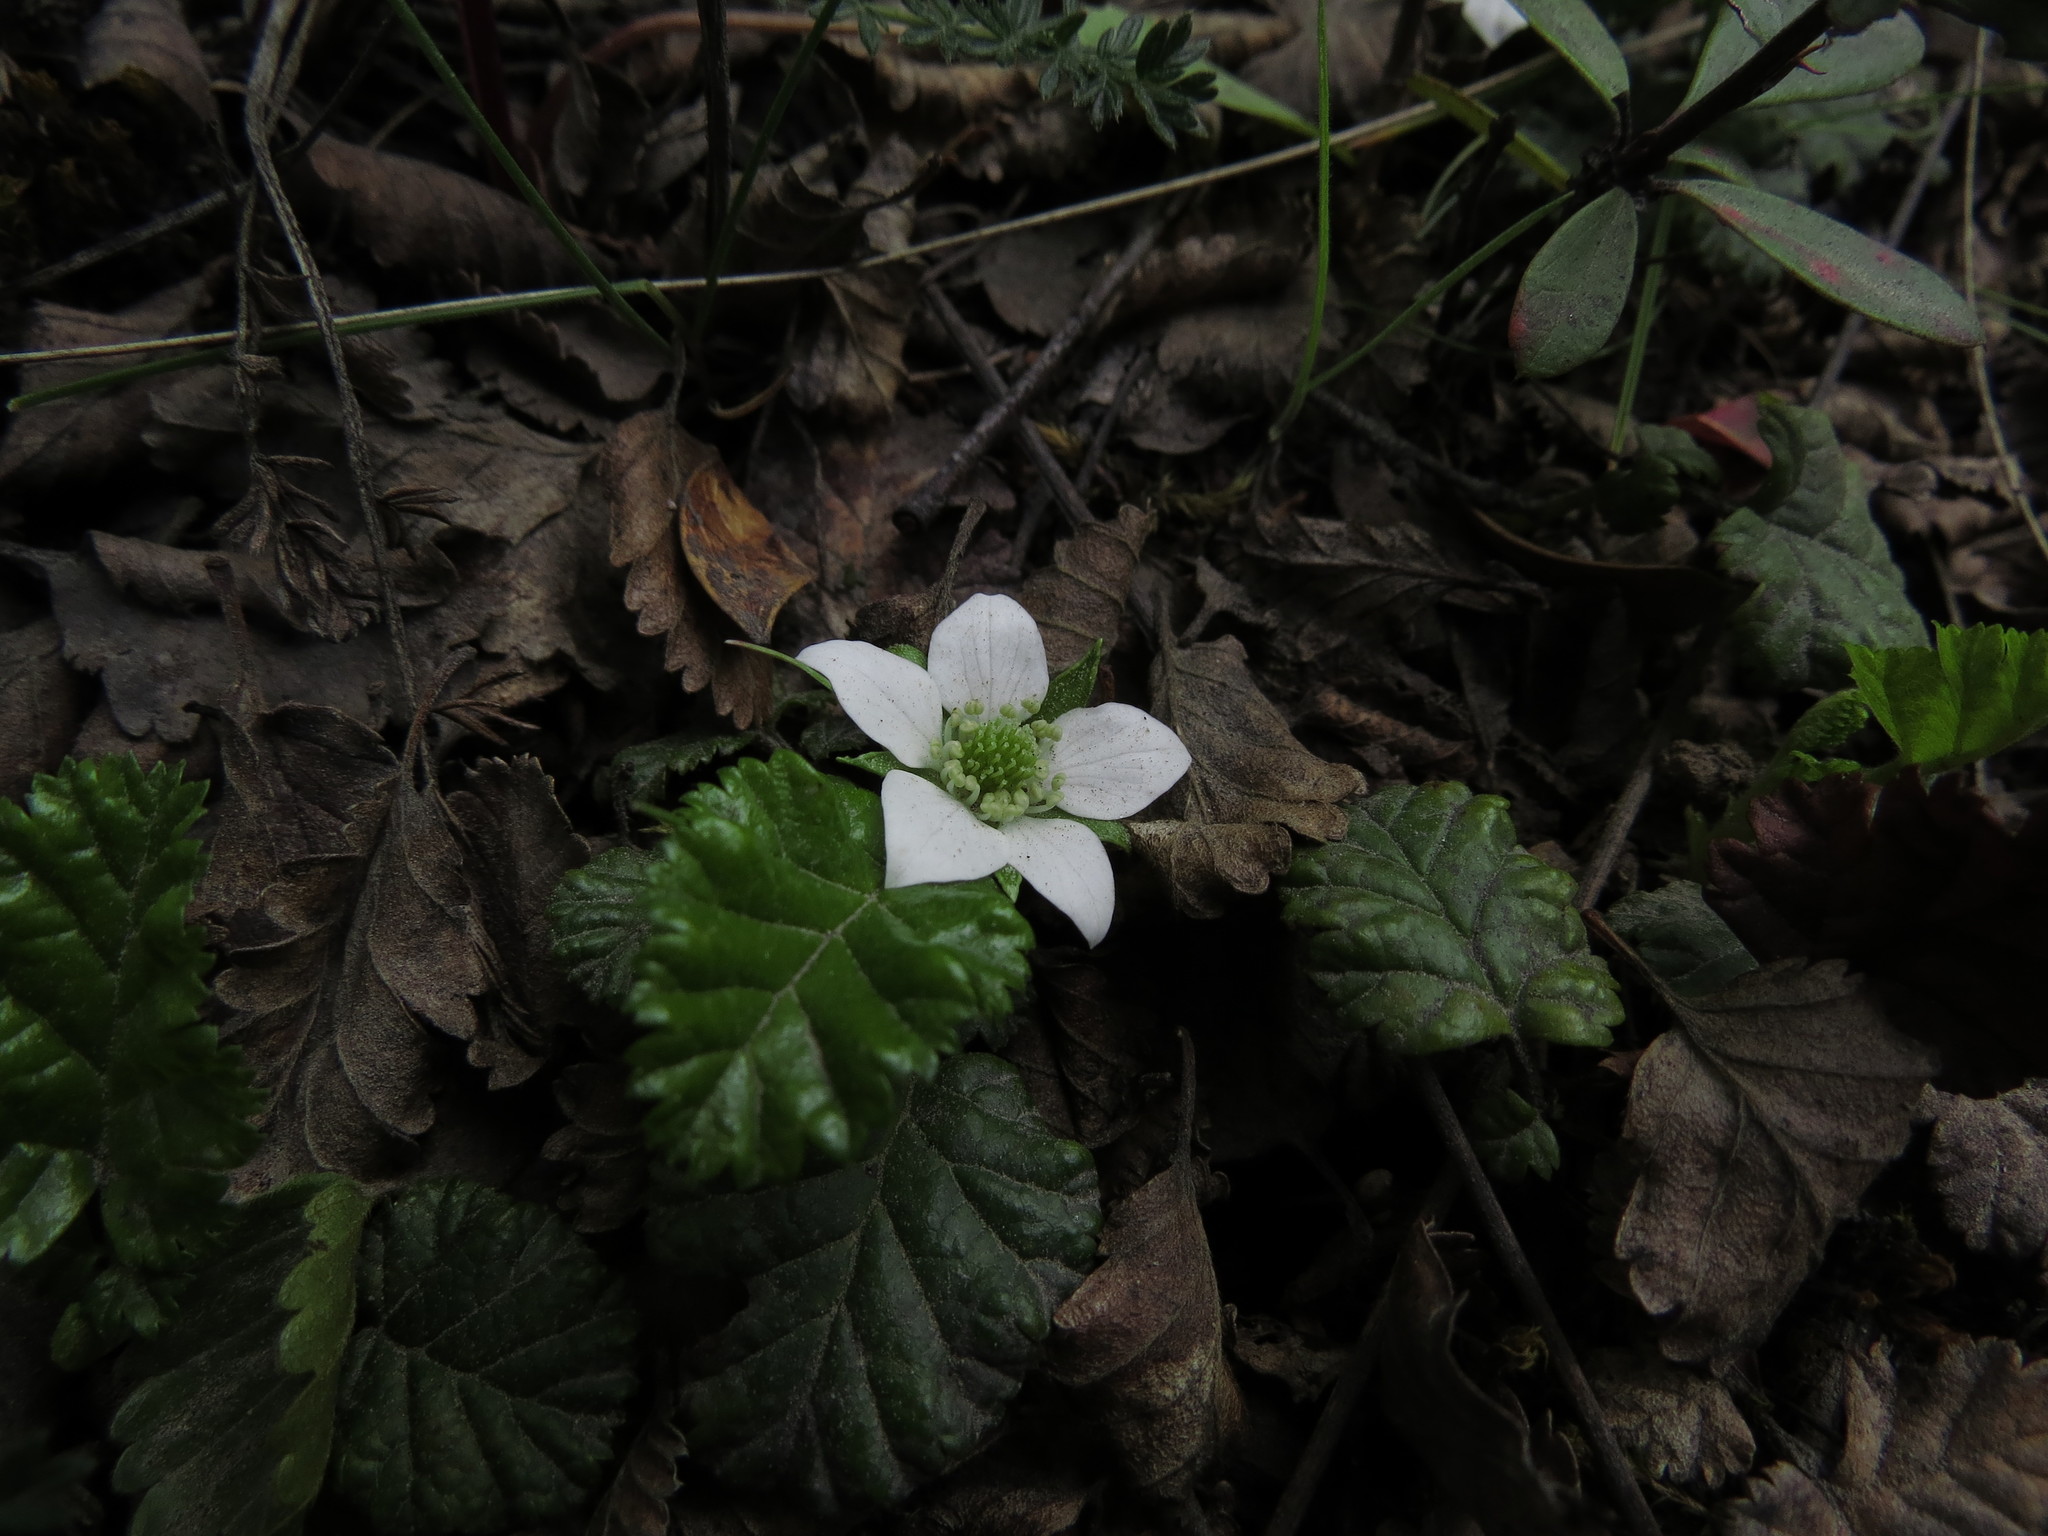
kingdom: Plantae
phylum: Tracheophyta
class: Magnoliopsida
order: Rosales
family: Rosaceae
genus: Rubus
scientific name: Rubus geoides
